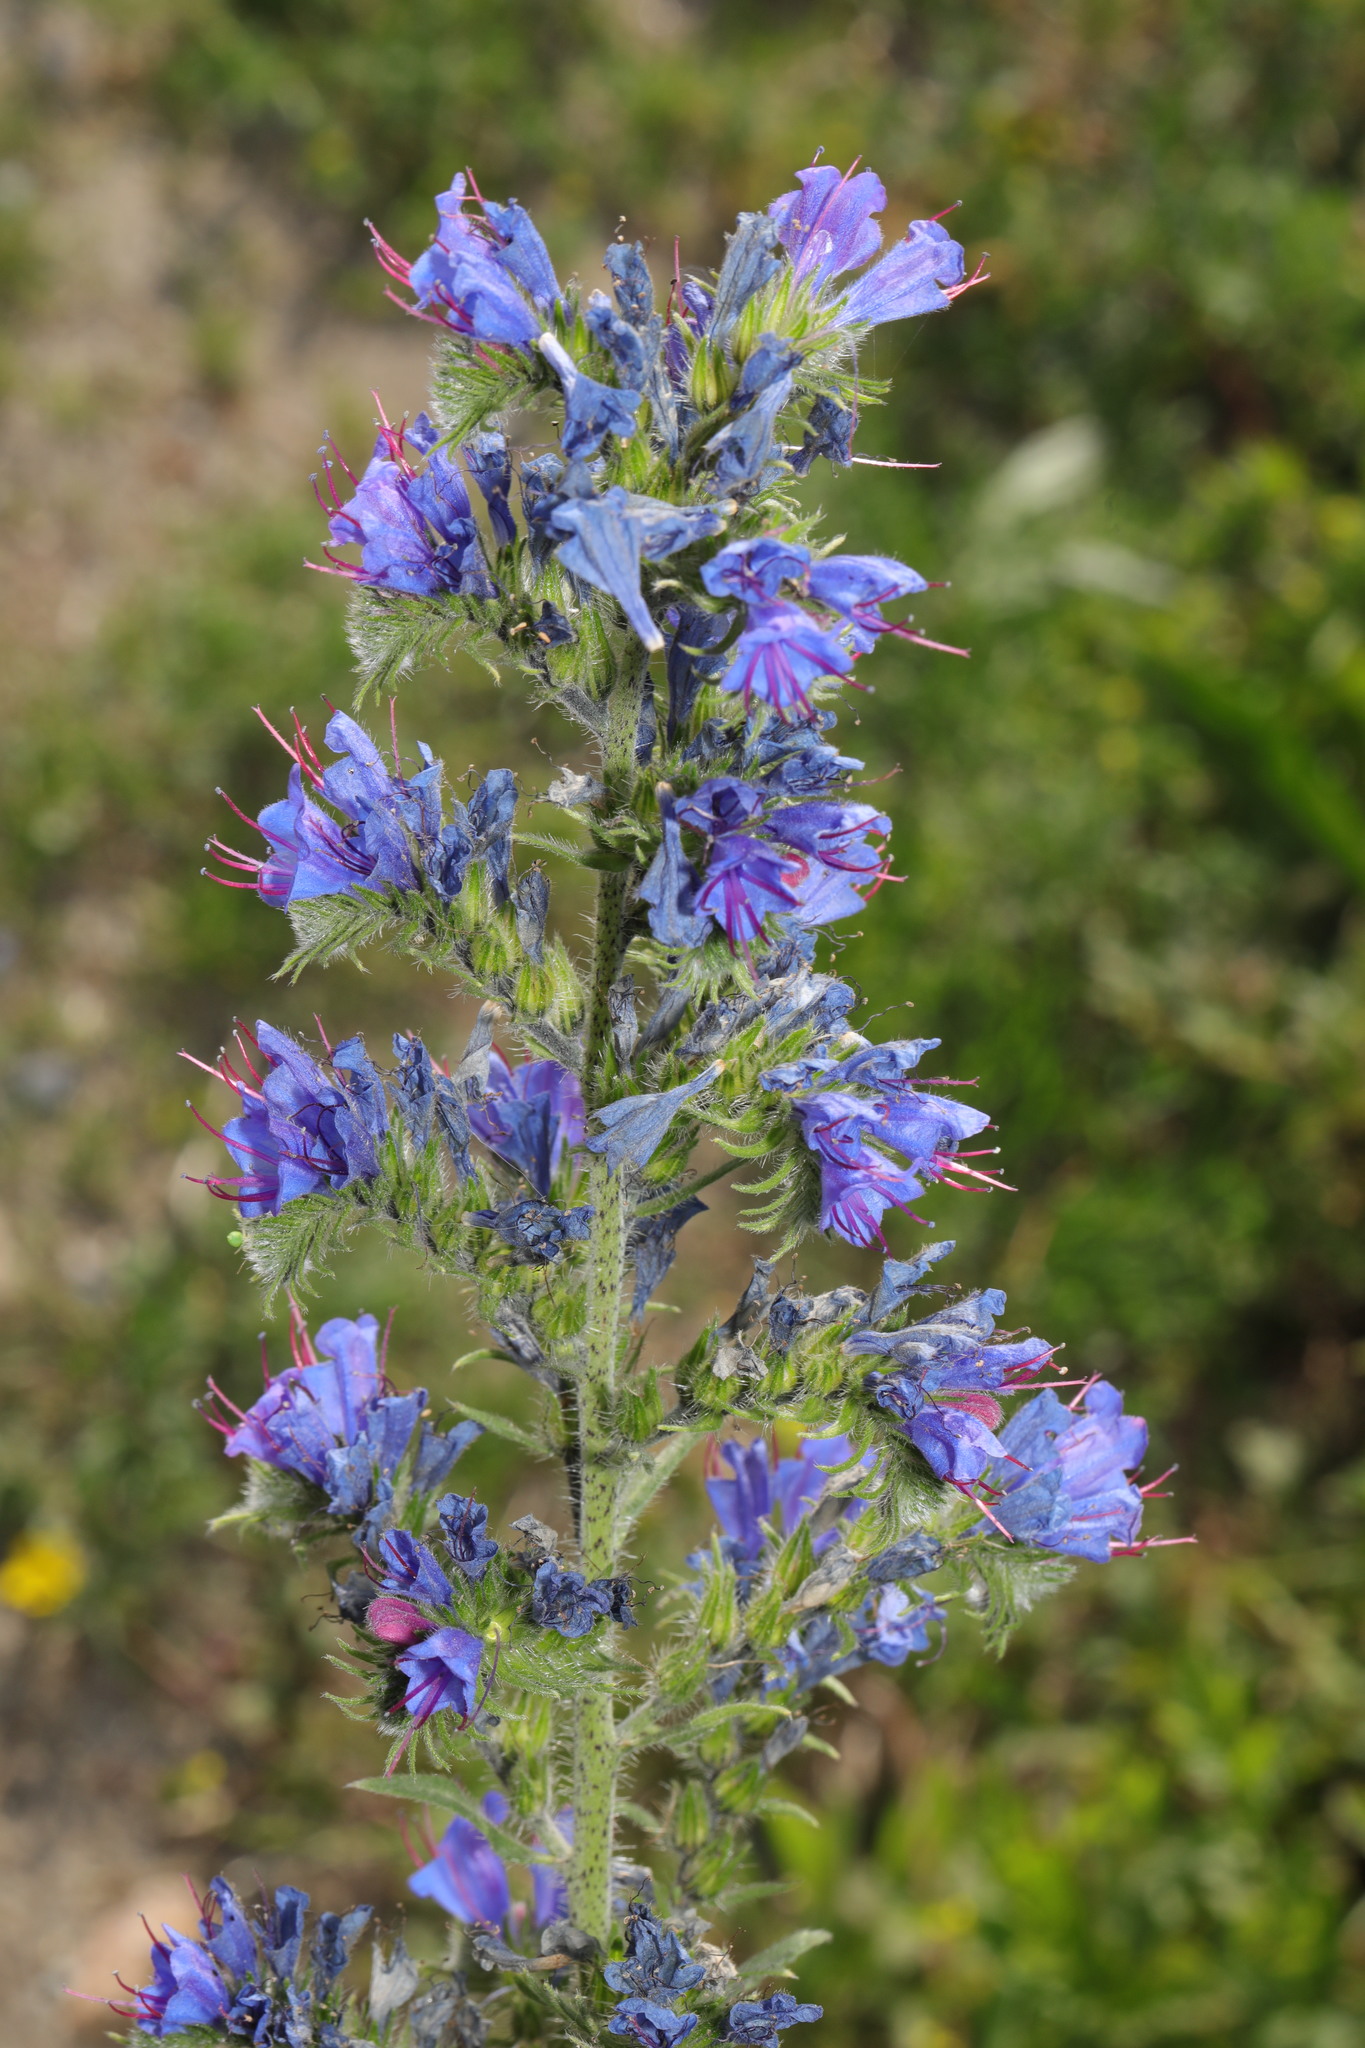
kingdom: Plantae
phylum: Tracheophyta
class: Magnoliopsida
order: Boraginales
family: Boraginaceae
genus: Echium
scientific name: Echium vulgare
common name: Common viper's bugloss
